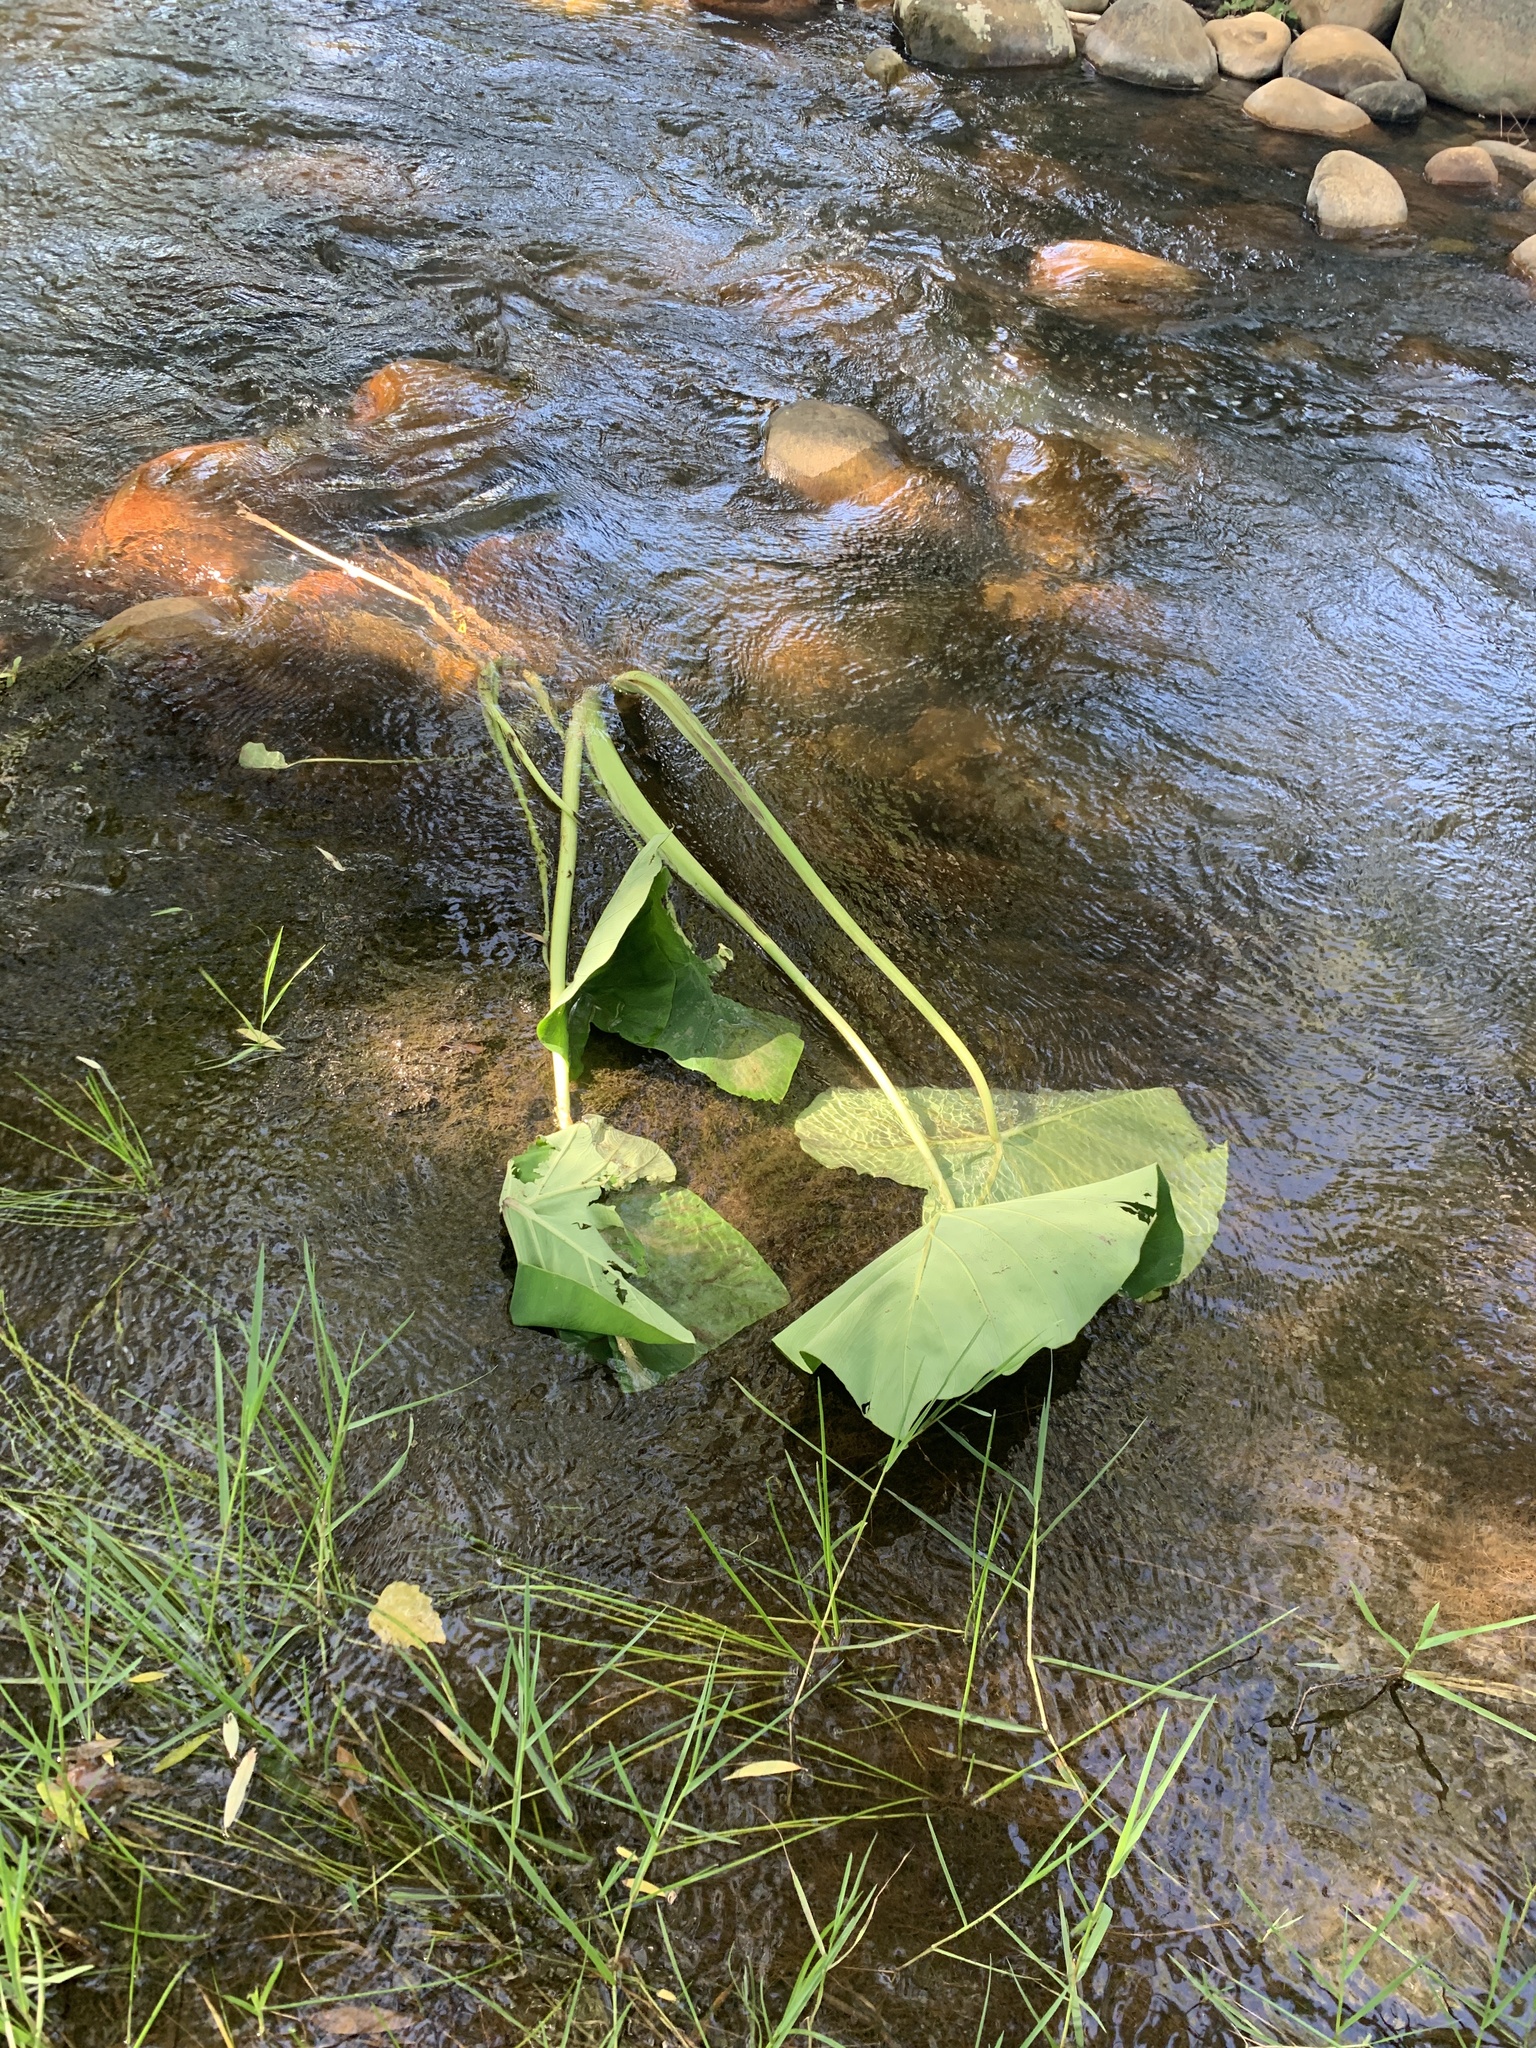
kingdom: Plantae
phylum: Tracheophyta
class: Liliopsida
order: Alismatales
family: Araceae
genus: Colocasia
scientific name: Colocasia esculenta
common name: Taro
